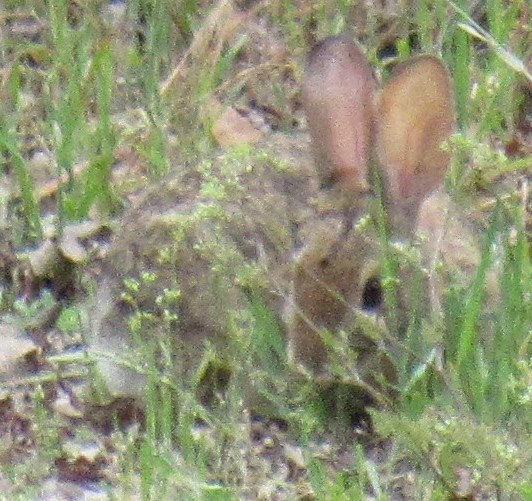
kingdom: Animalia
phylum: Chordata
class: Mammalia
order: Lagomorpha
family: Leporidae
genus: Sylvilagus
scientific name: Sylvilagus audubonii
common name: Desert cottontail
